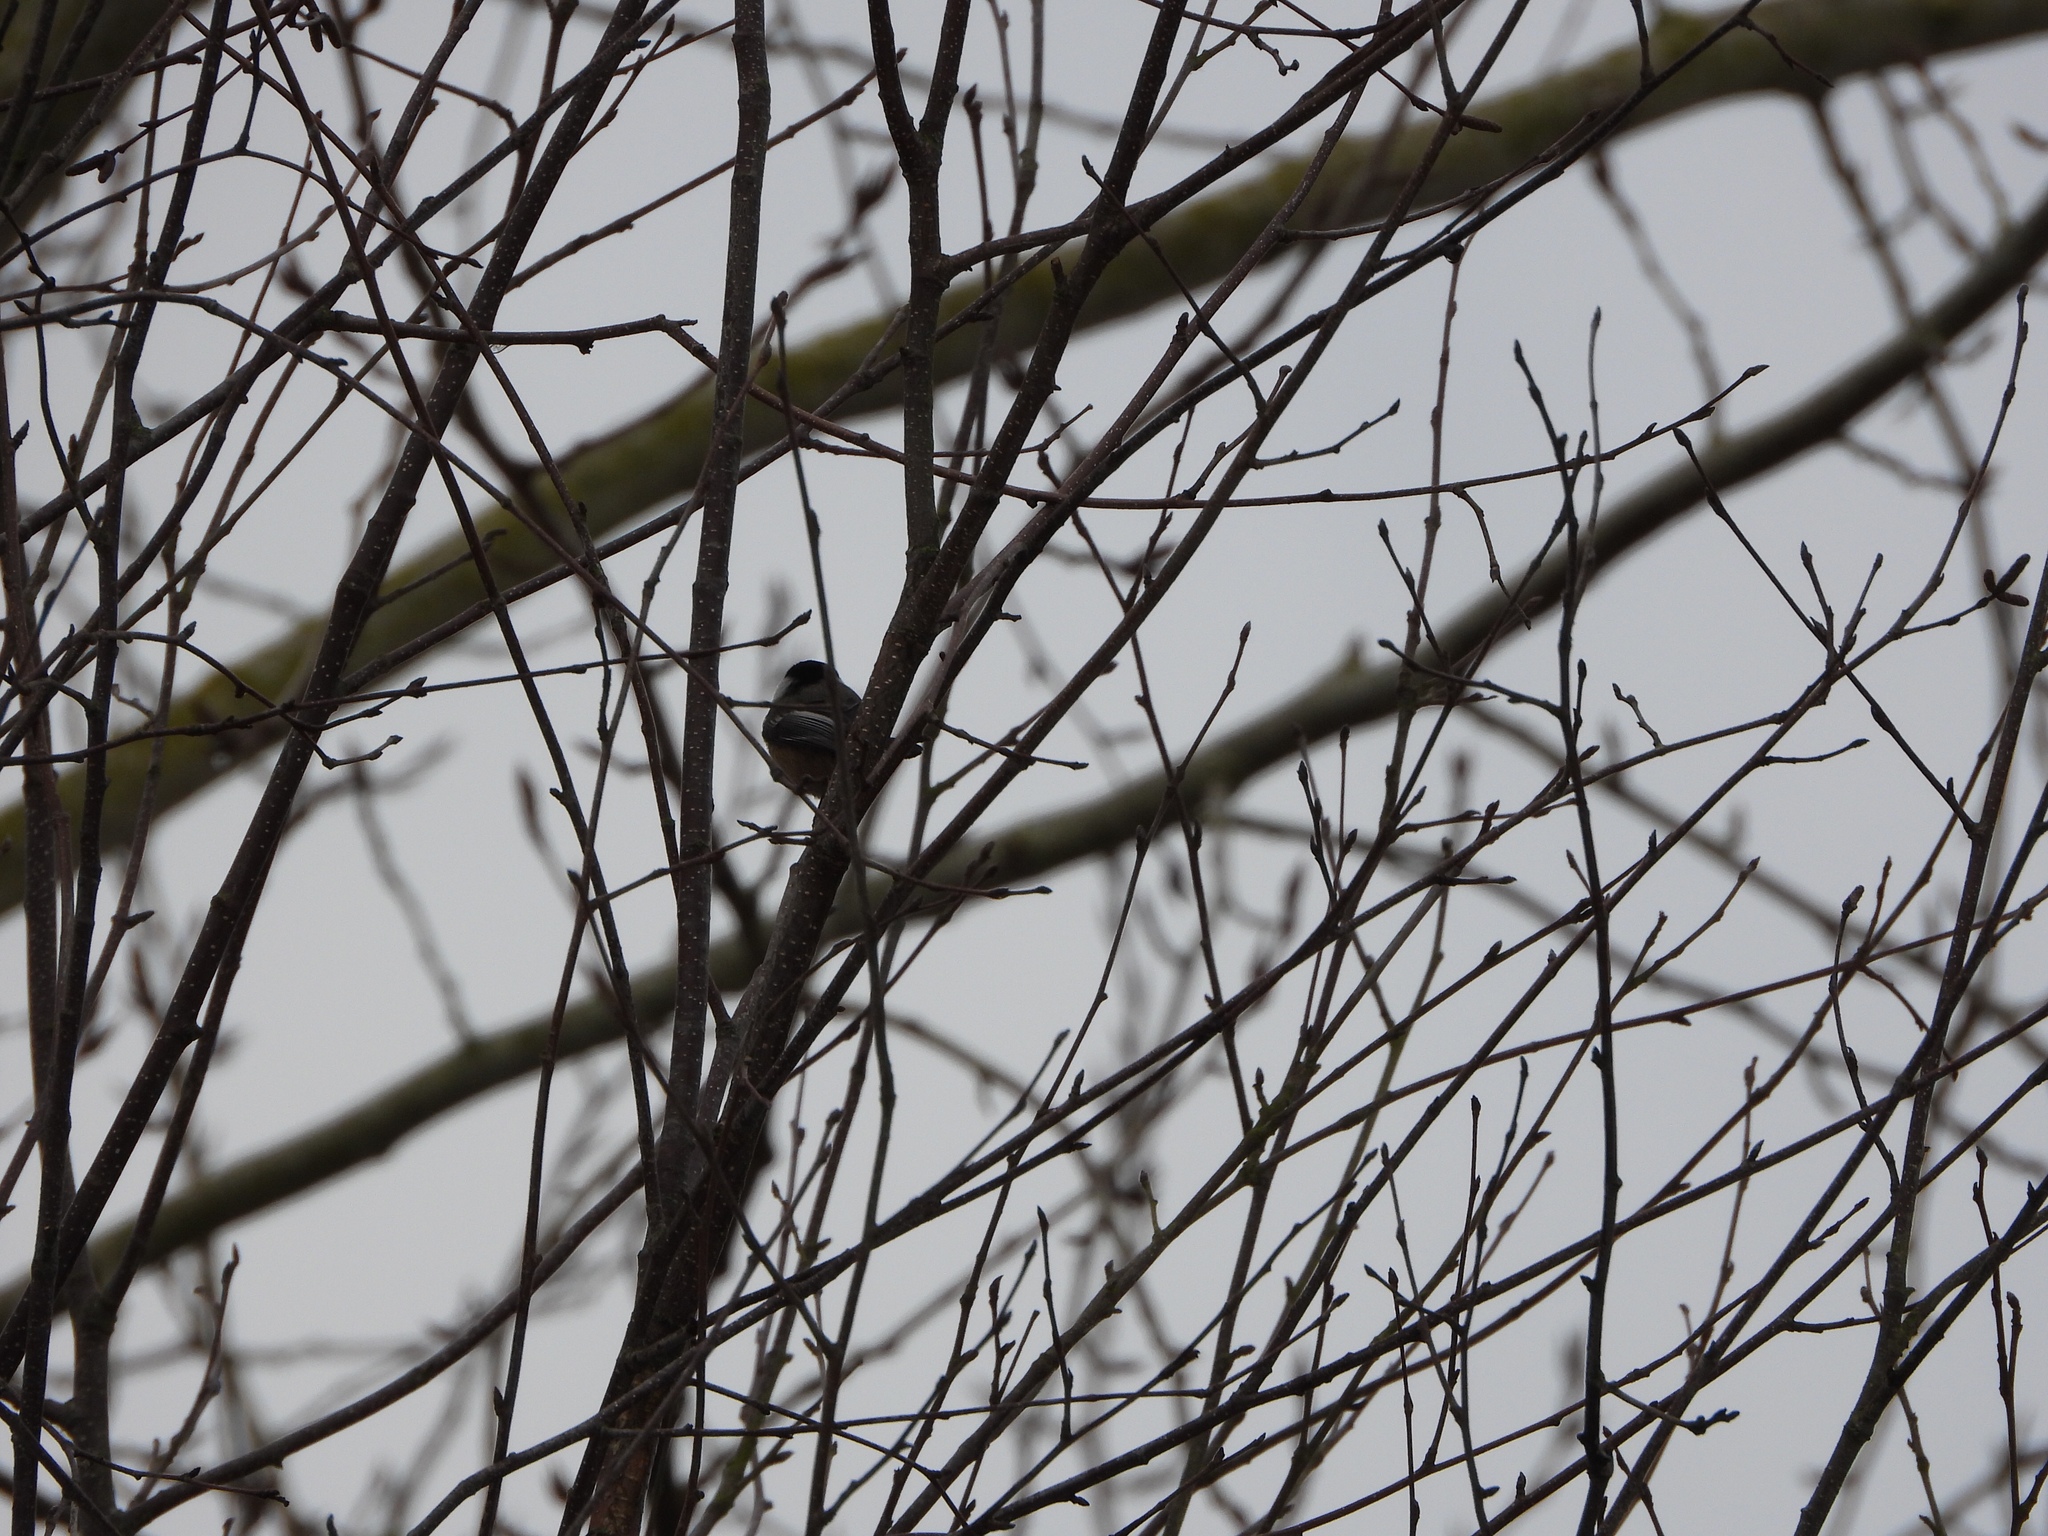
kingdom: Animalia
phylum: Chordata
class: Aves
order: Passeriformes
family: Paridae
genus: Poecile
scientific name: Poecile atricapillus
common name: Black-capped chickadee
